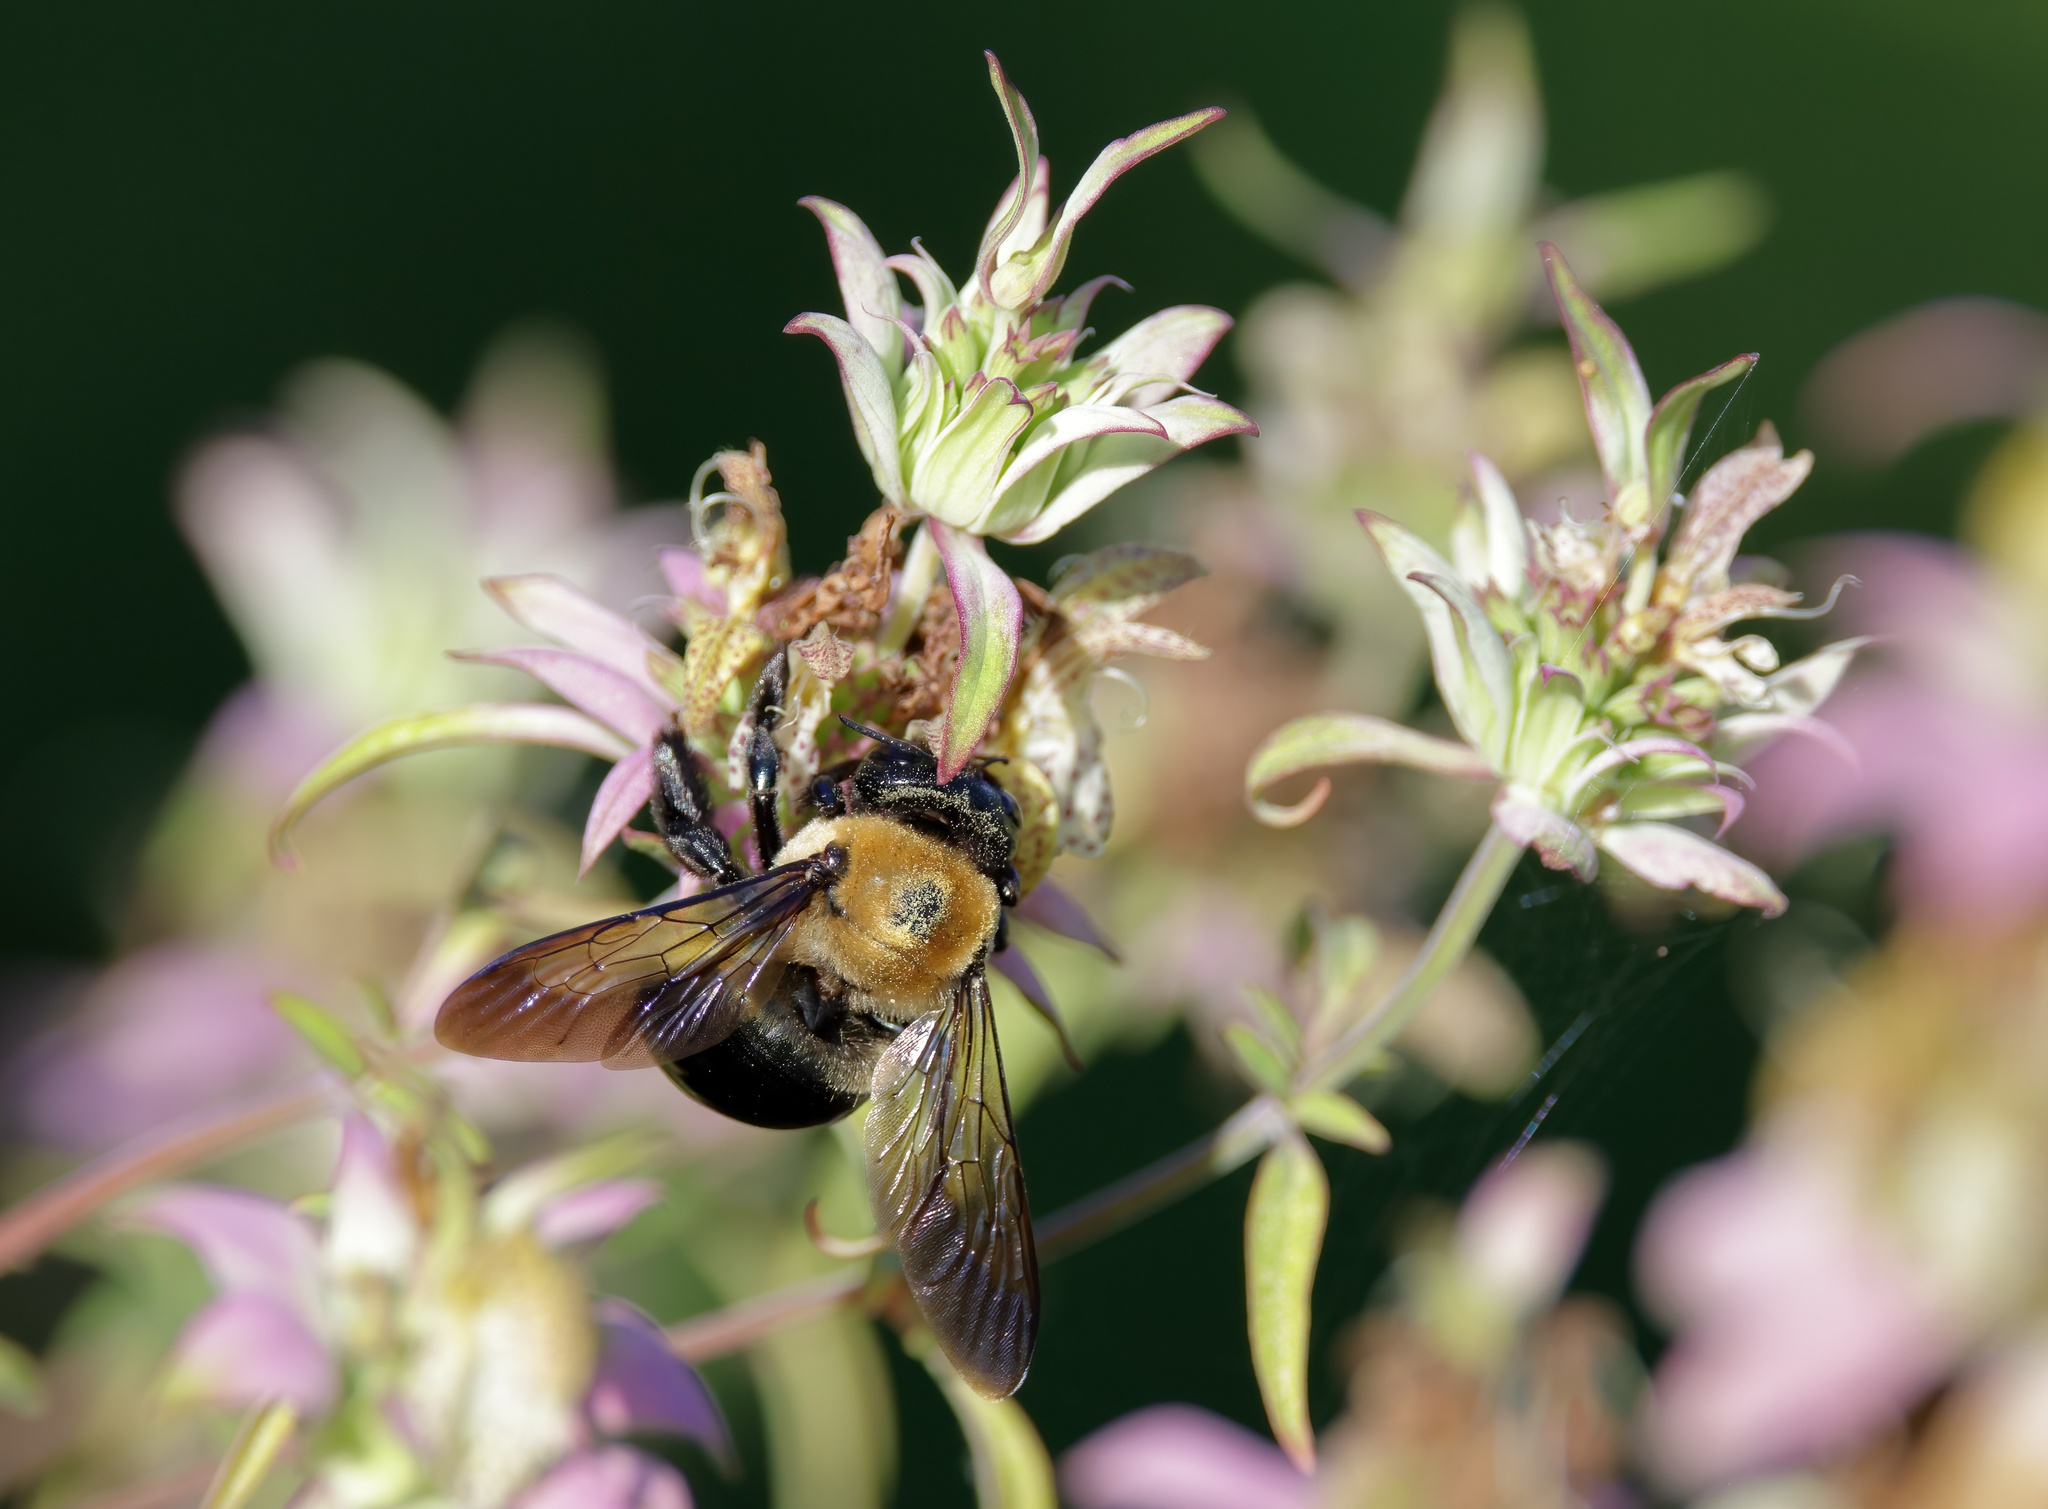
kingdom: Animalia
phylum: Arthropoda
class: Insecta
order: Hymenoptera
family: Apidae
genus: Xylocopa
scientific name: Xylocopa virginica
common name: Carpenter bee
